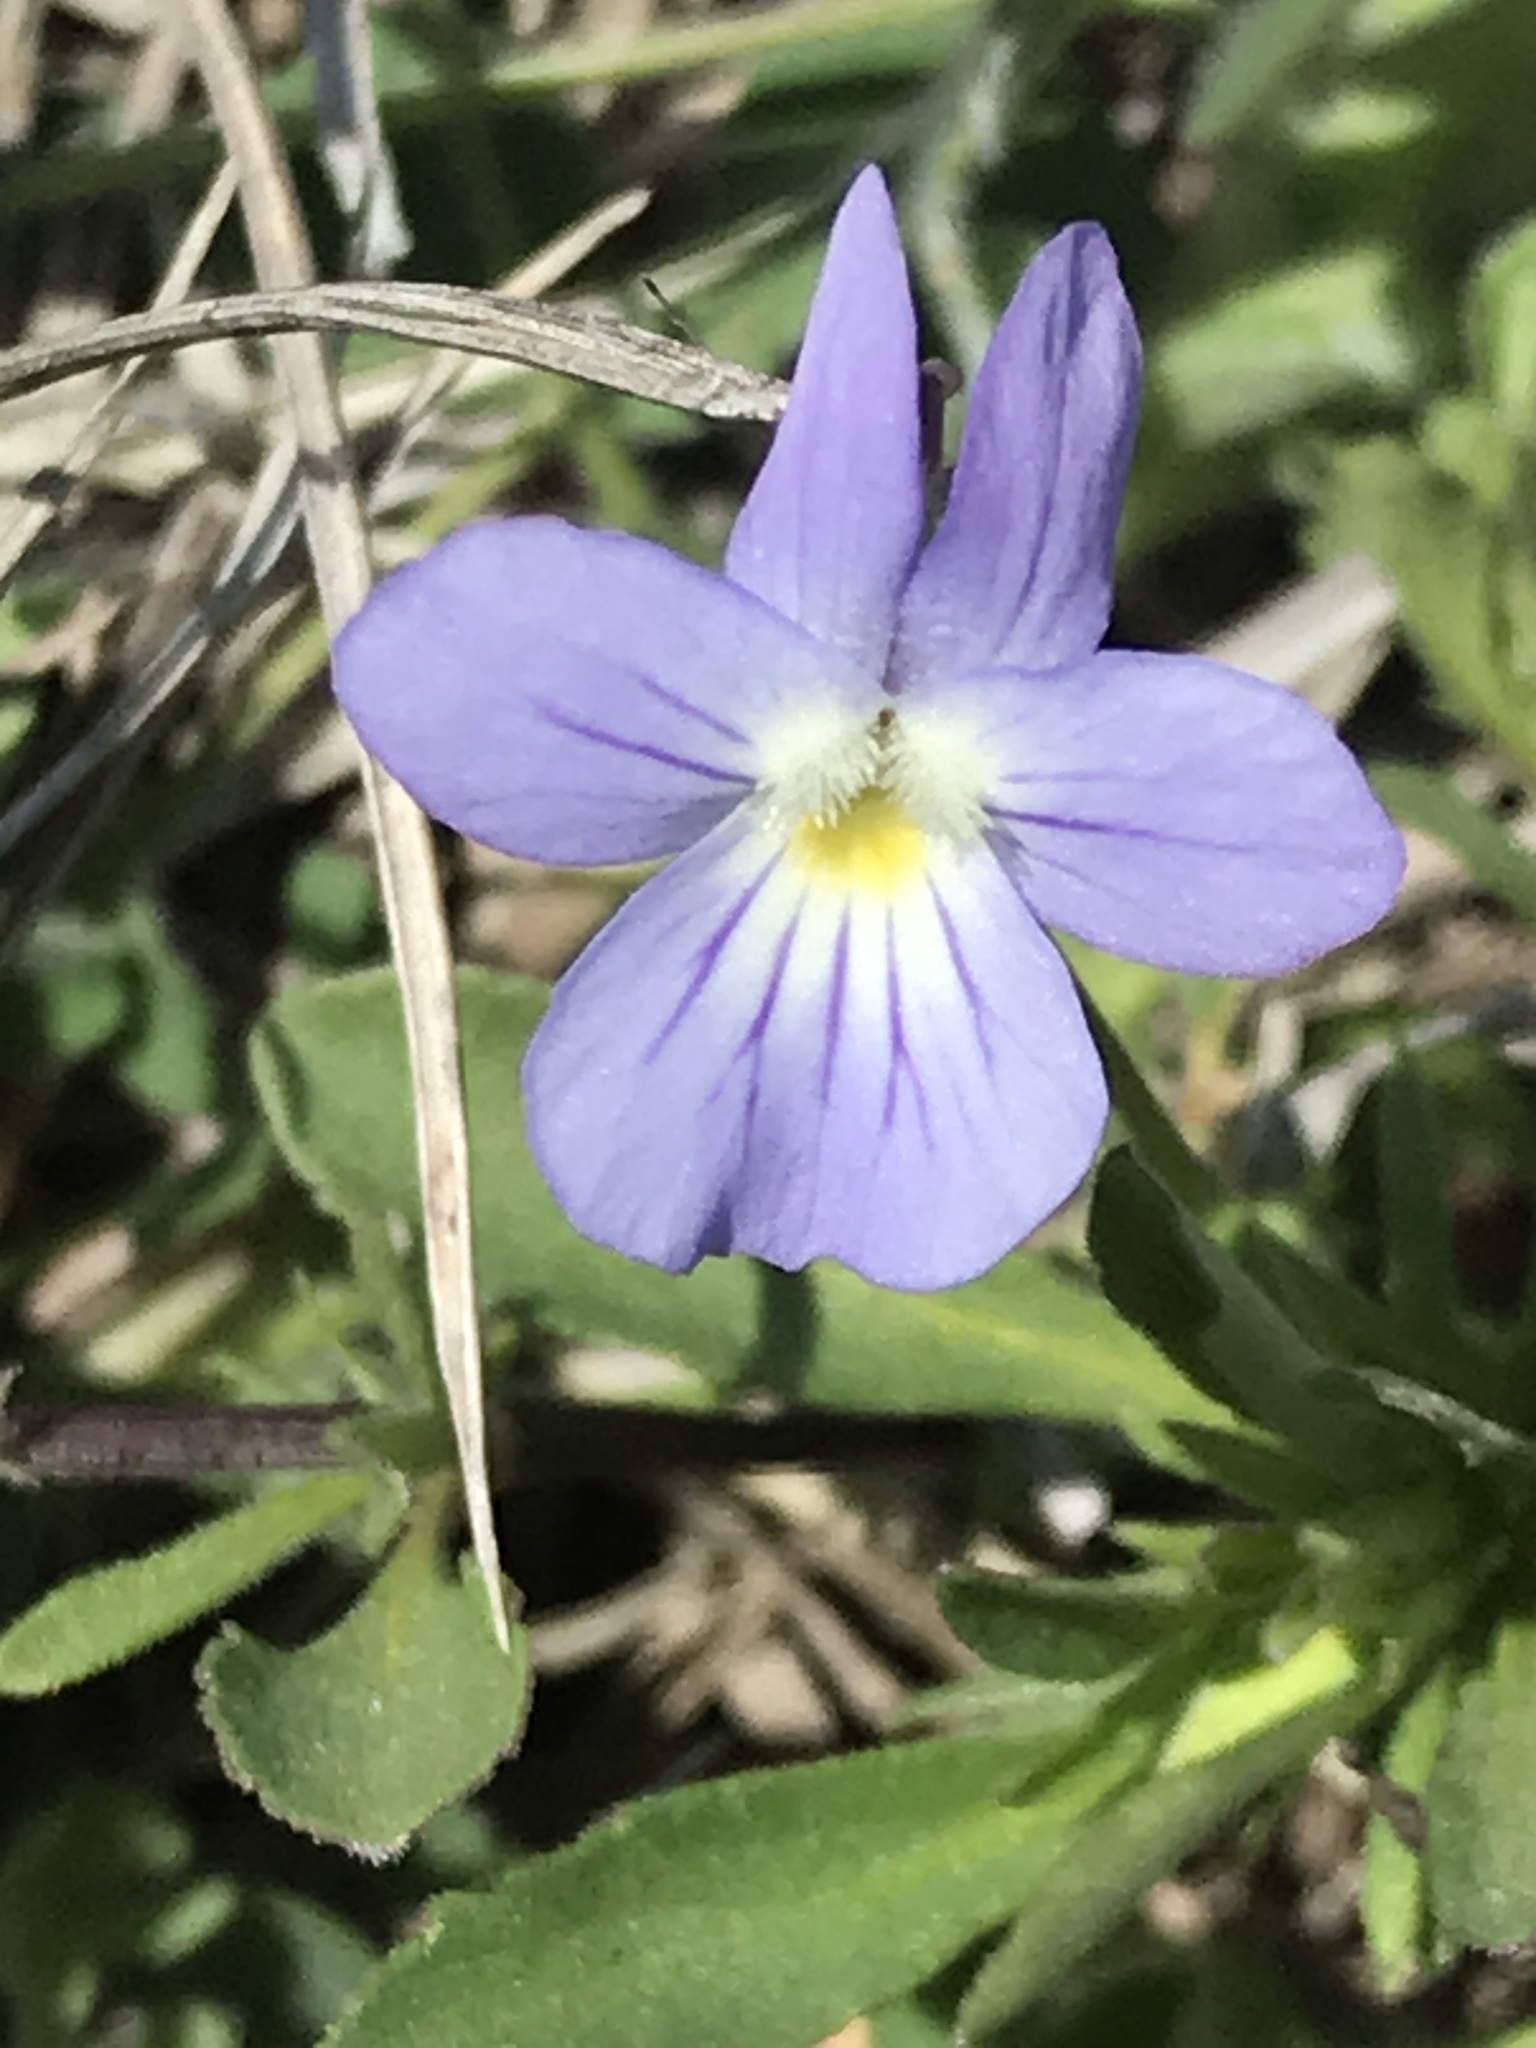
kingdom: Plantae
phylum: Tracheophyta
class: Magnoliopsida
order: Malpighiales
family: Violaceae
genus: Viola
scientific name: Viola rafinesquei
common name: American field pansy
